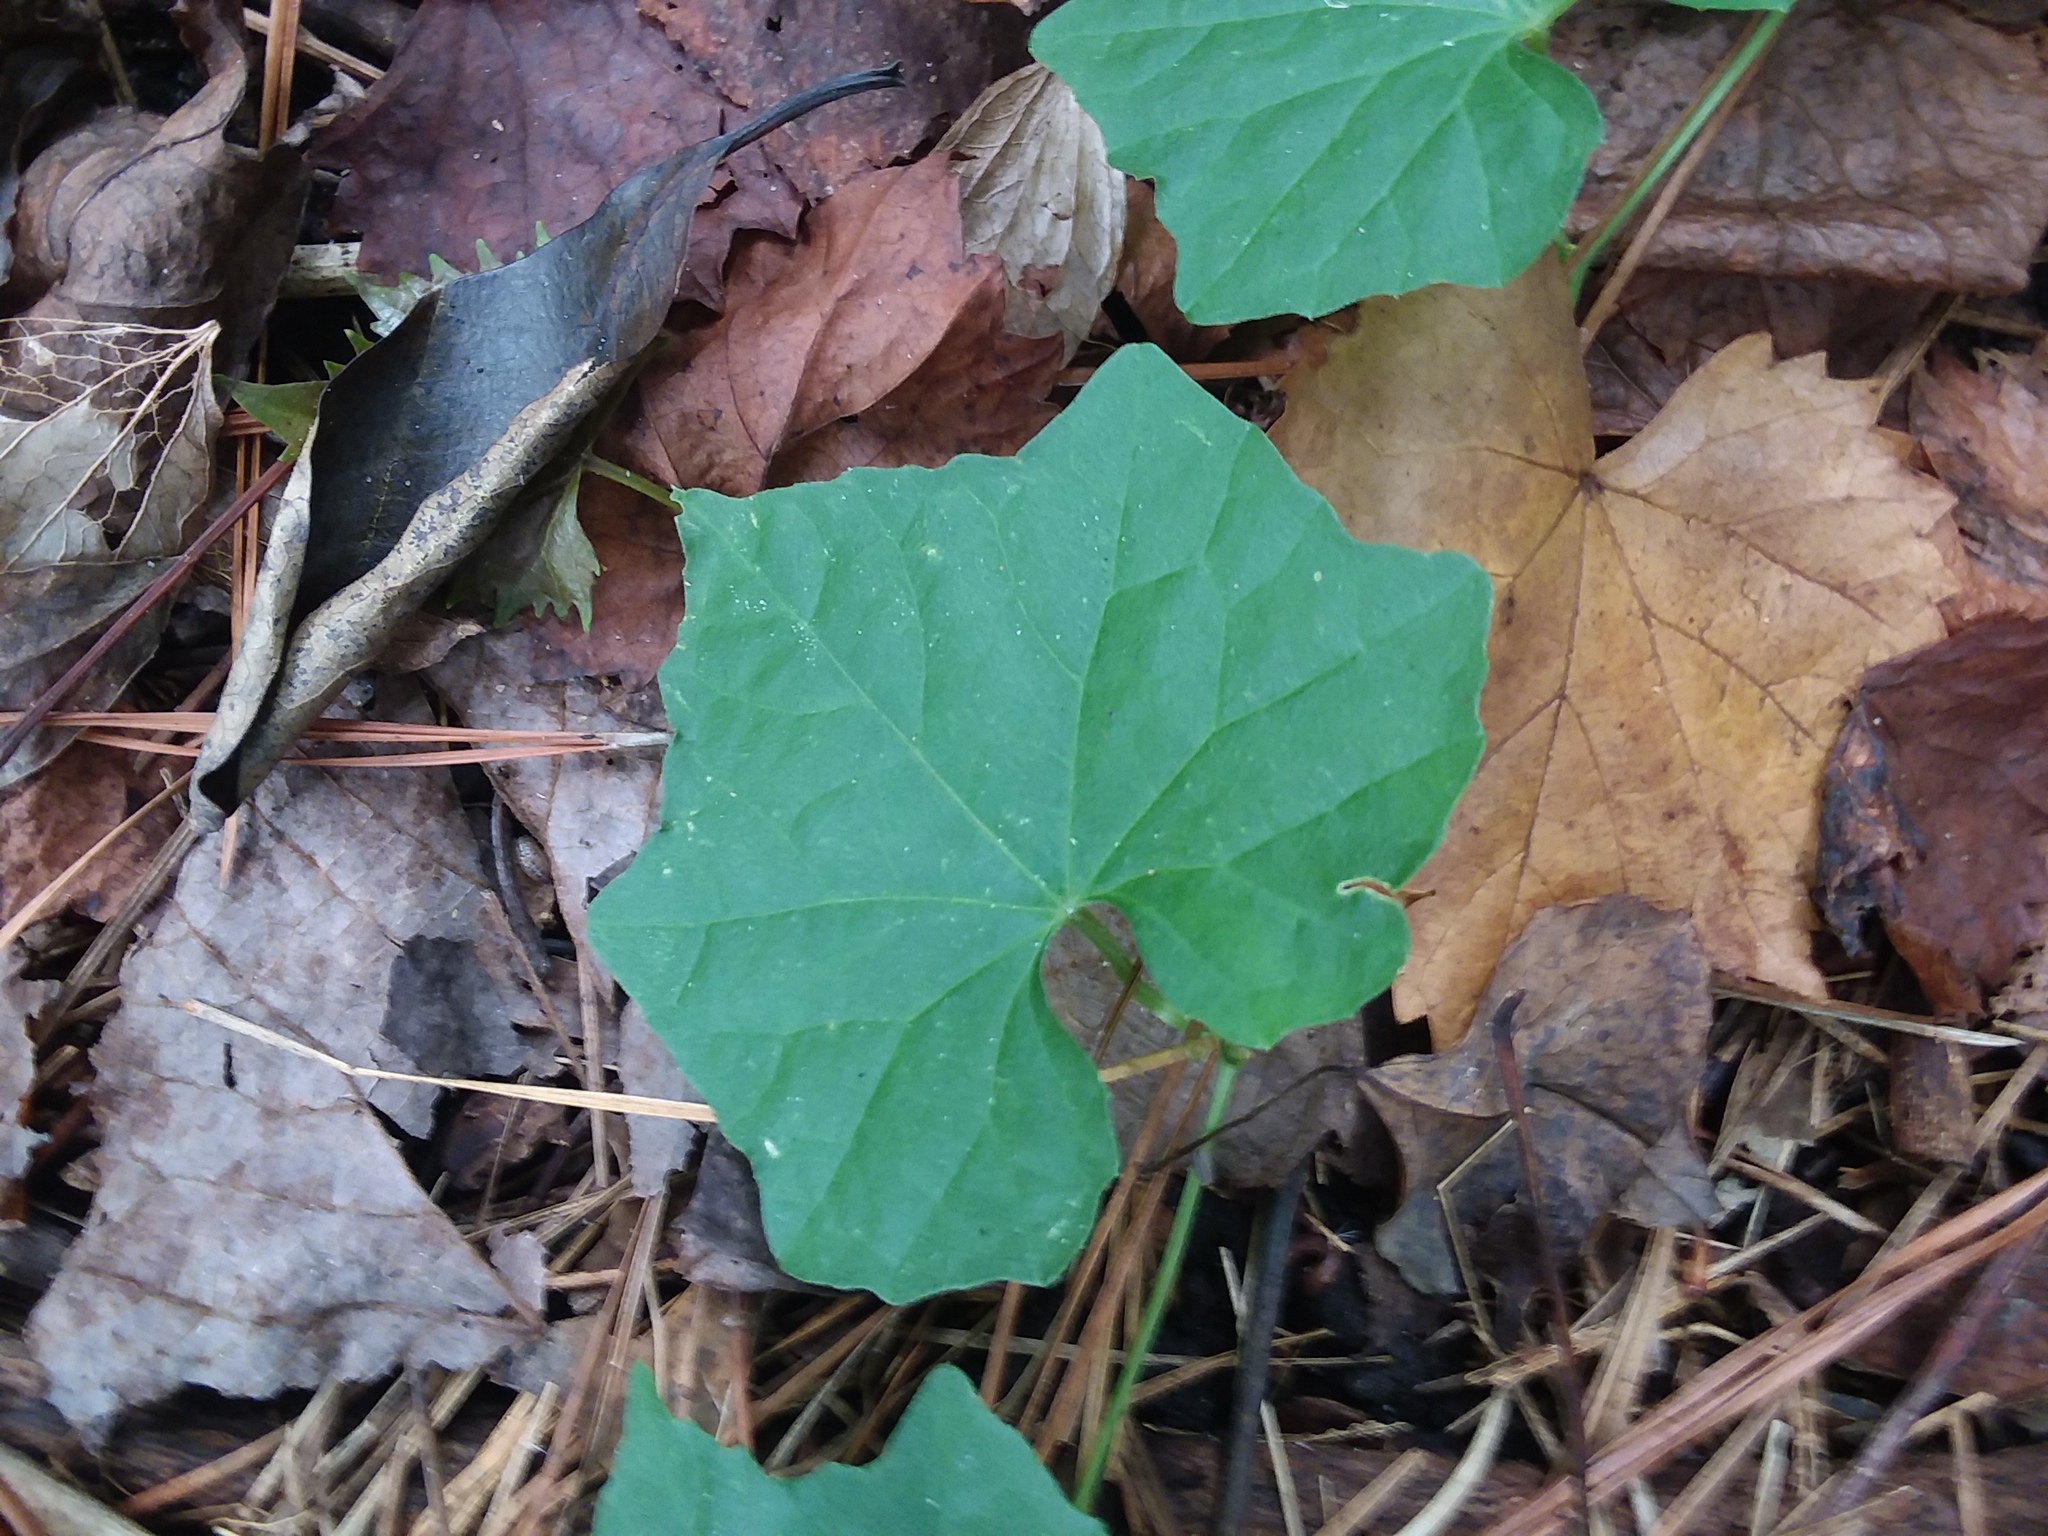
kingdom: Plantae
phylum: Tracheophyta
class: Magnoliopsida
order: Cucurbitales
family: Cucurbitaceae
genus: Melothria
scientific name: Melothria pendula
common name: Creeping-cucumber
